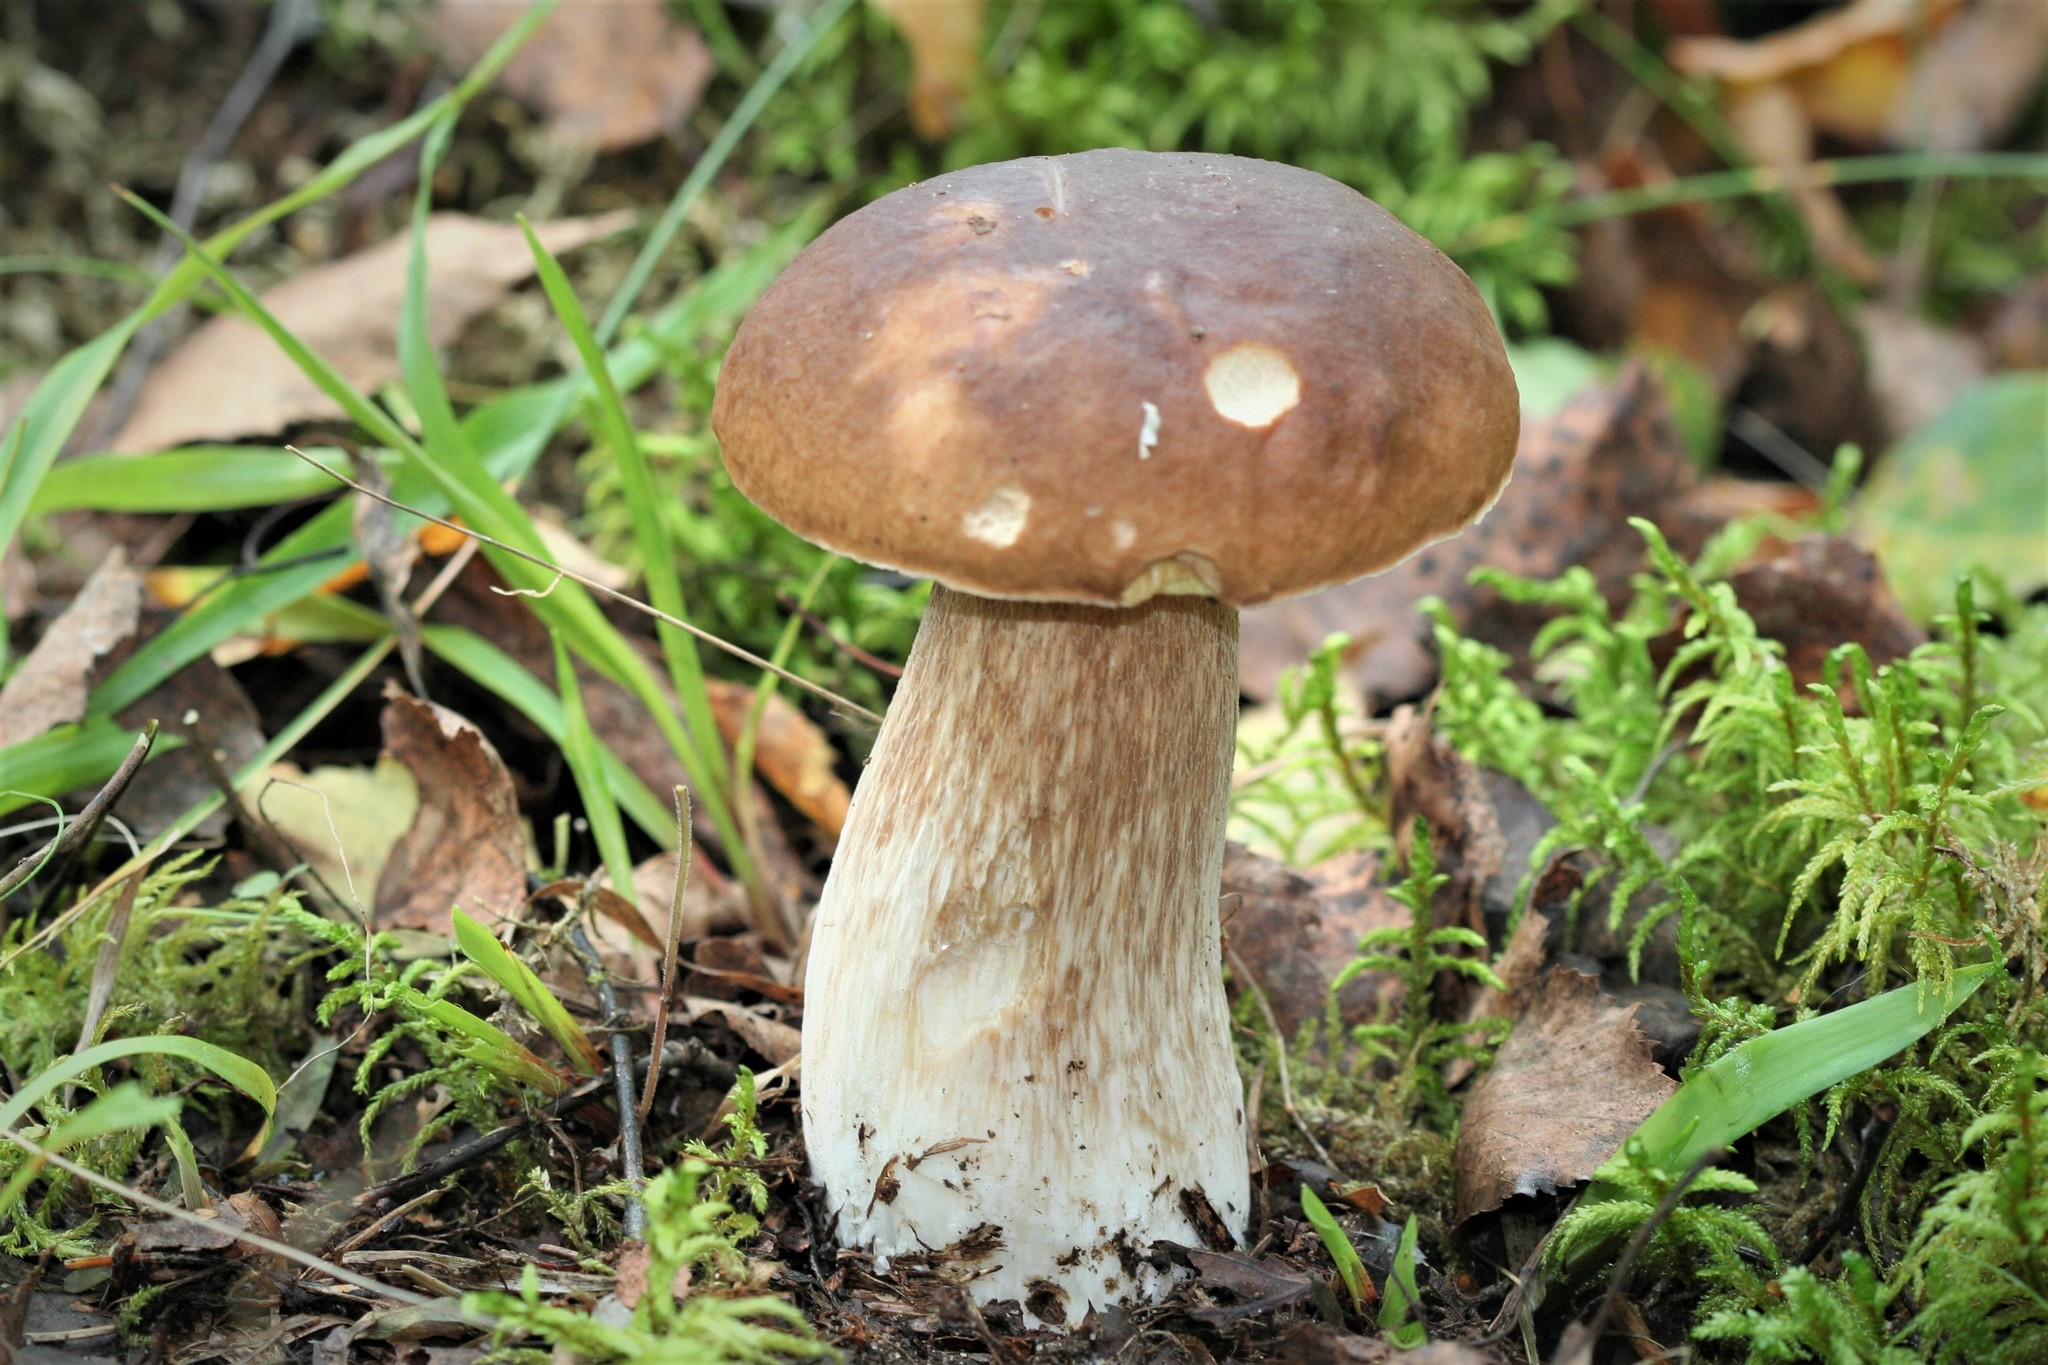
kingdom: Fungi
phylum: Basidiomycota
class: Agaricomycetes
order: Boletales
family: Boletaceae
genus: Boletus
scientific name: Boletus edulis
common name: Cep
